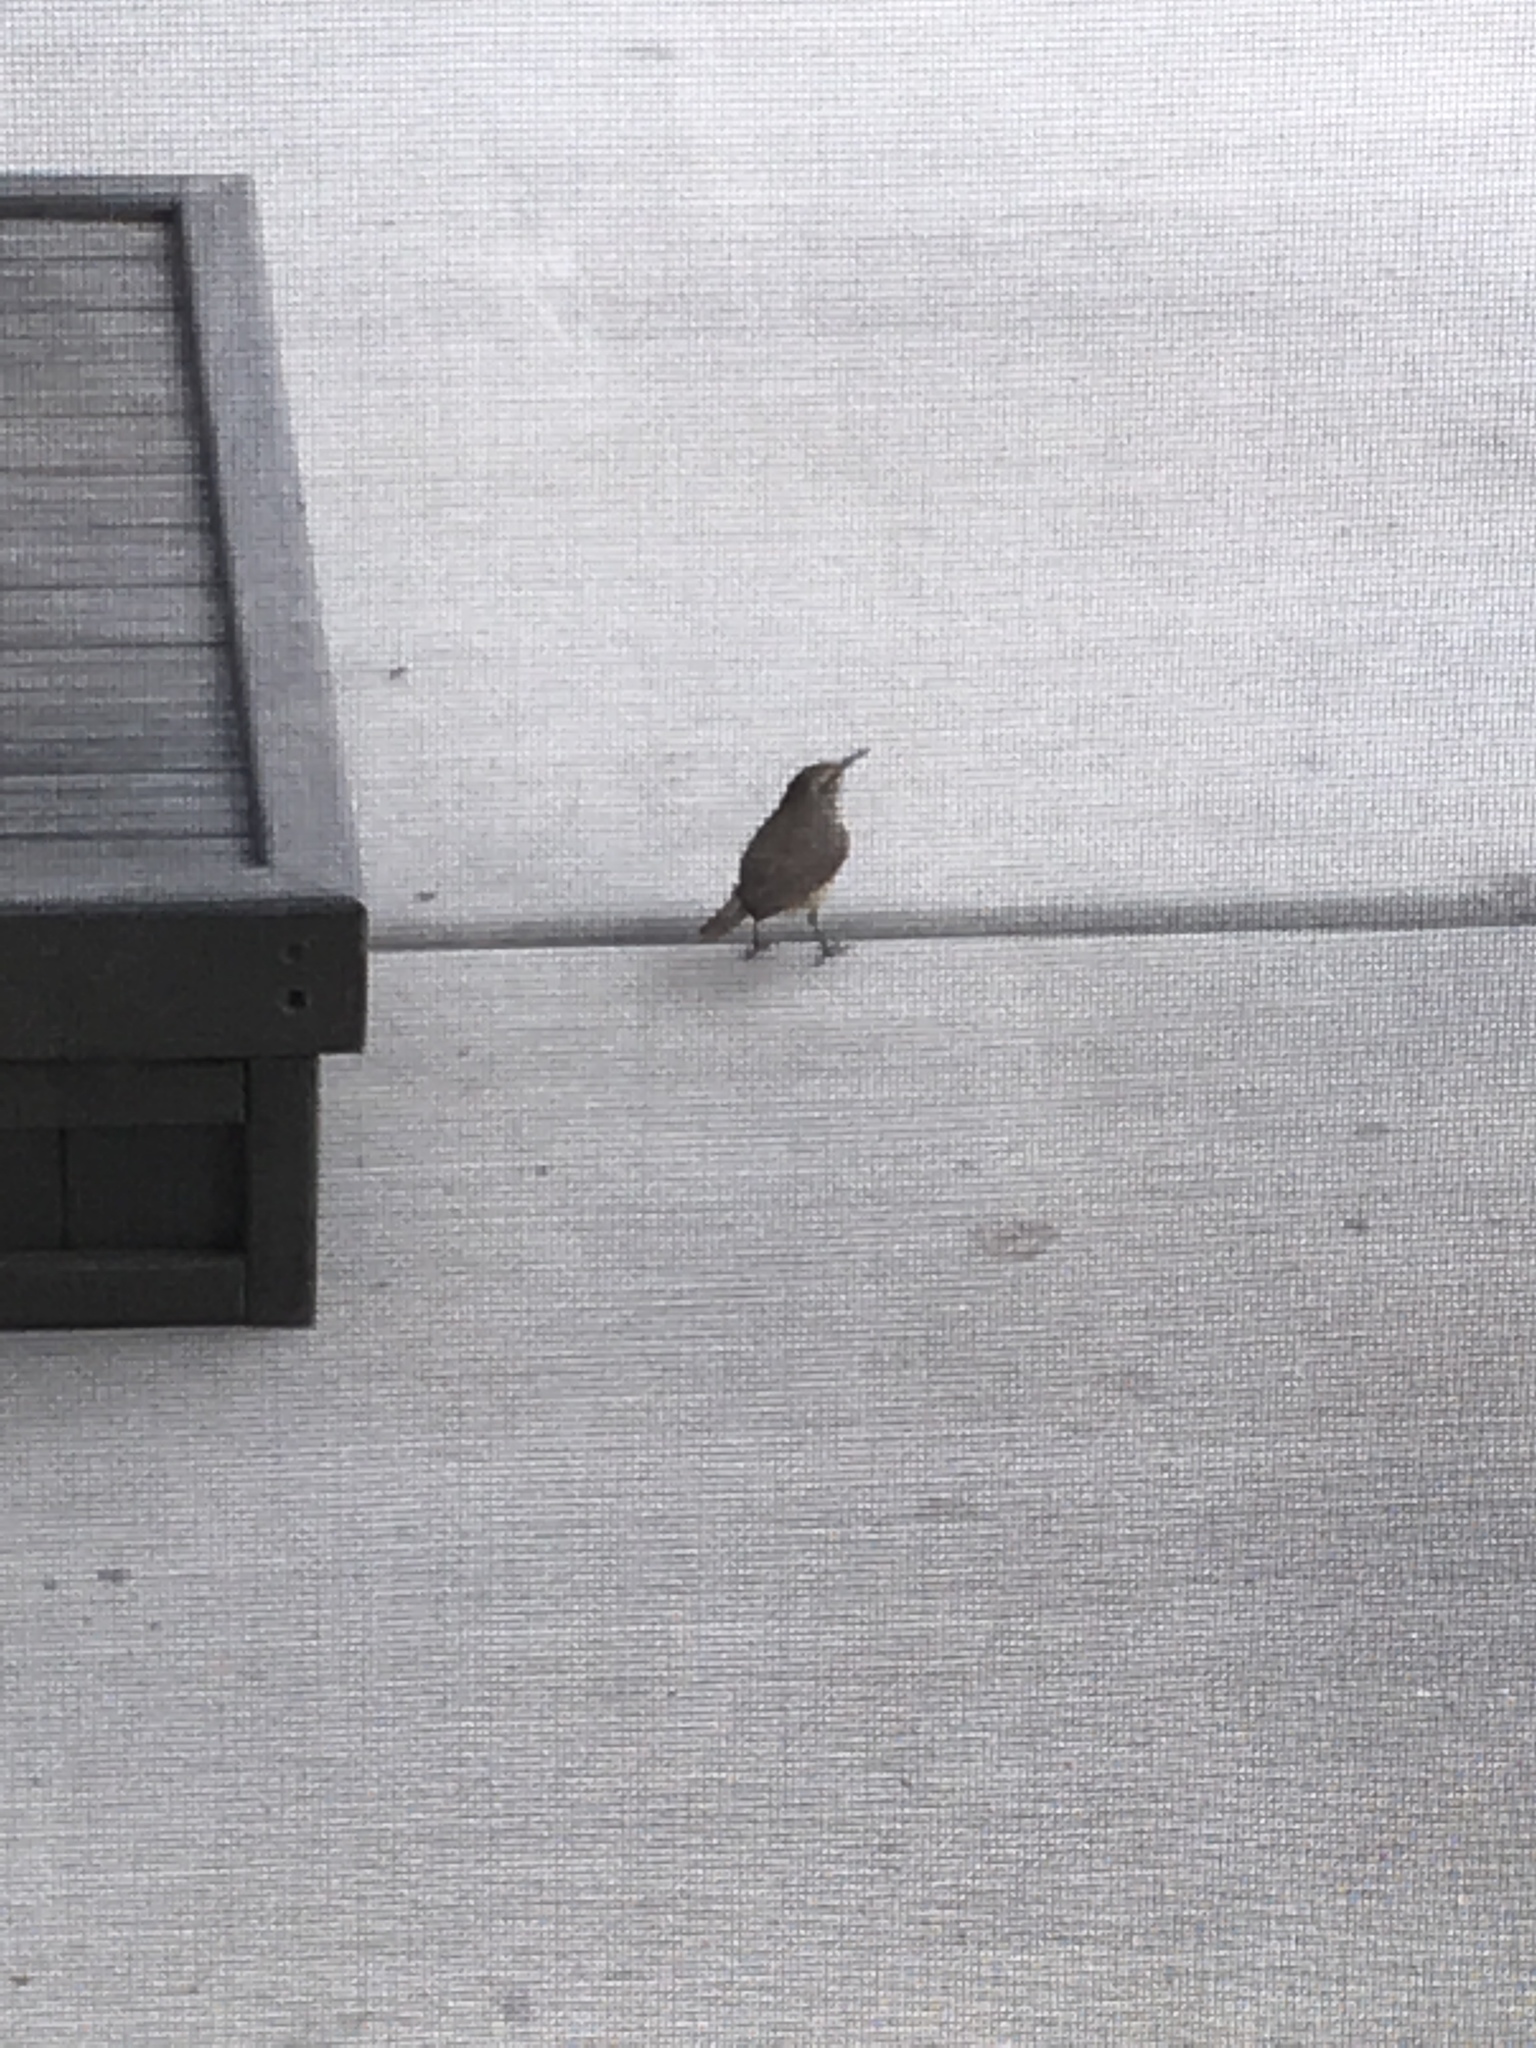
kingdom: Animalia
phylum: Chordata
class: Aves
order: Passeriformes
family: Troglodytidae
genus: Salpinctes
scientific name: Salpinctes obsoletus
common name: Rock wren
